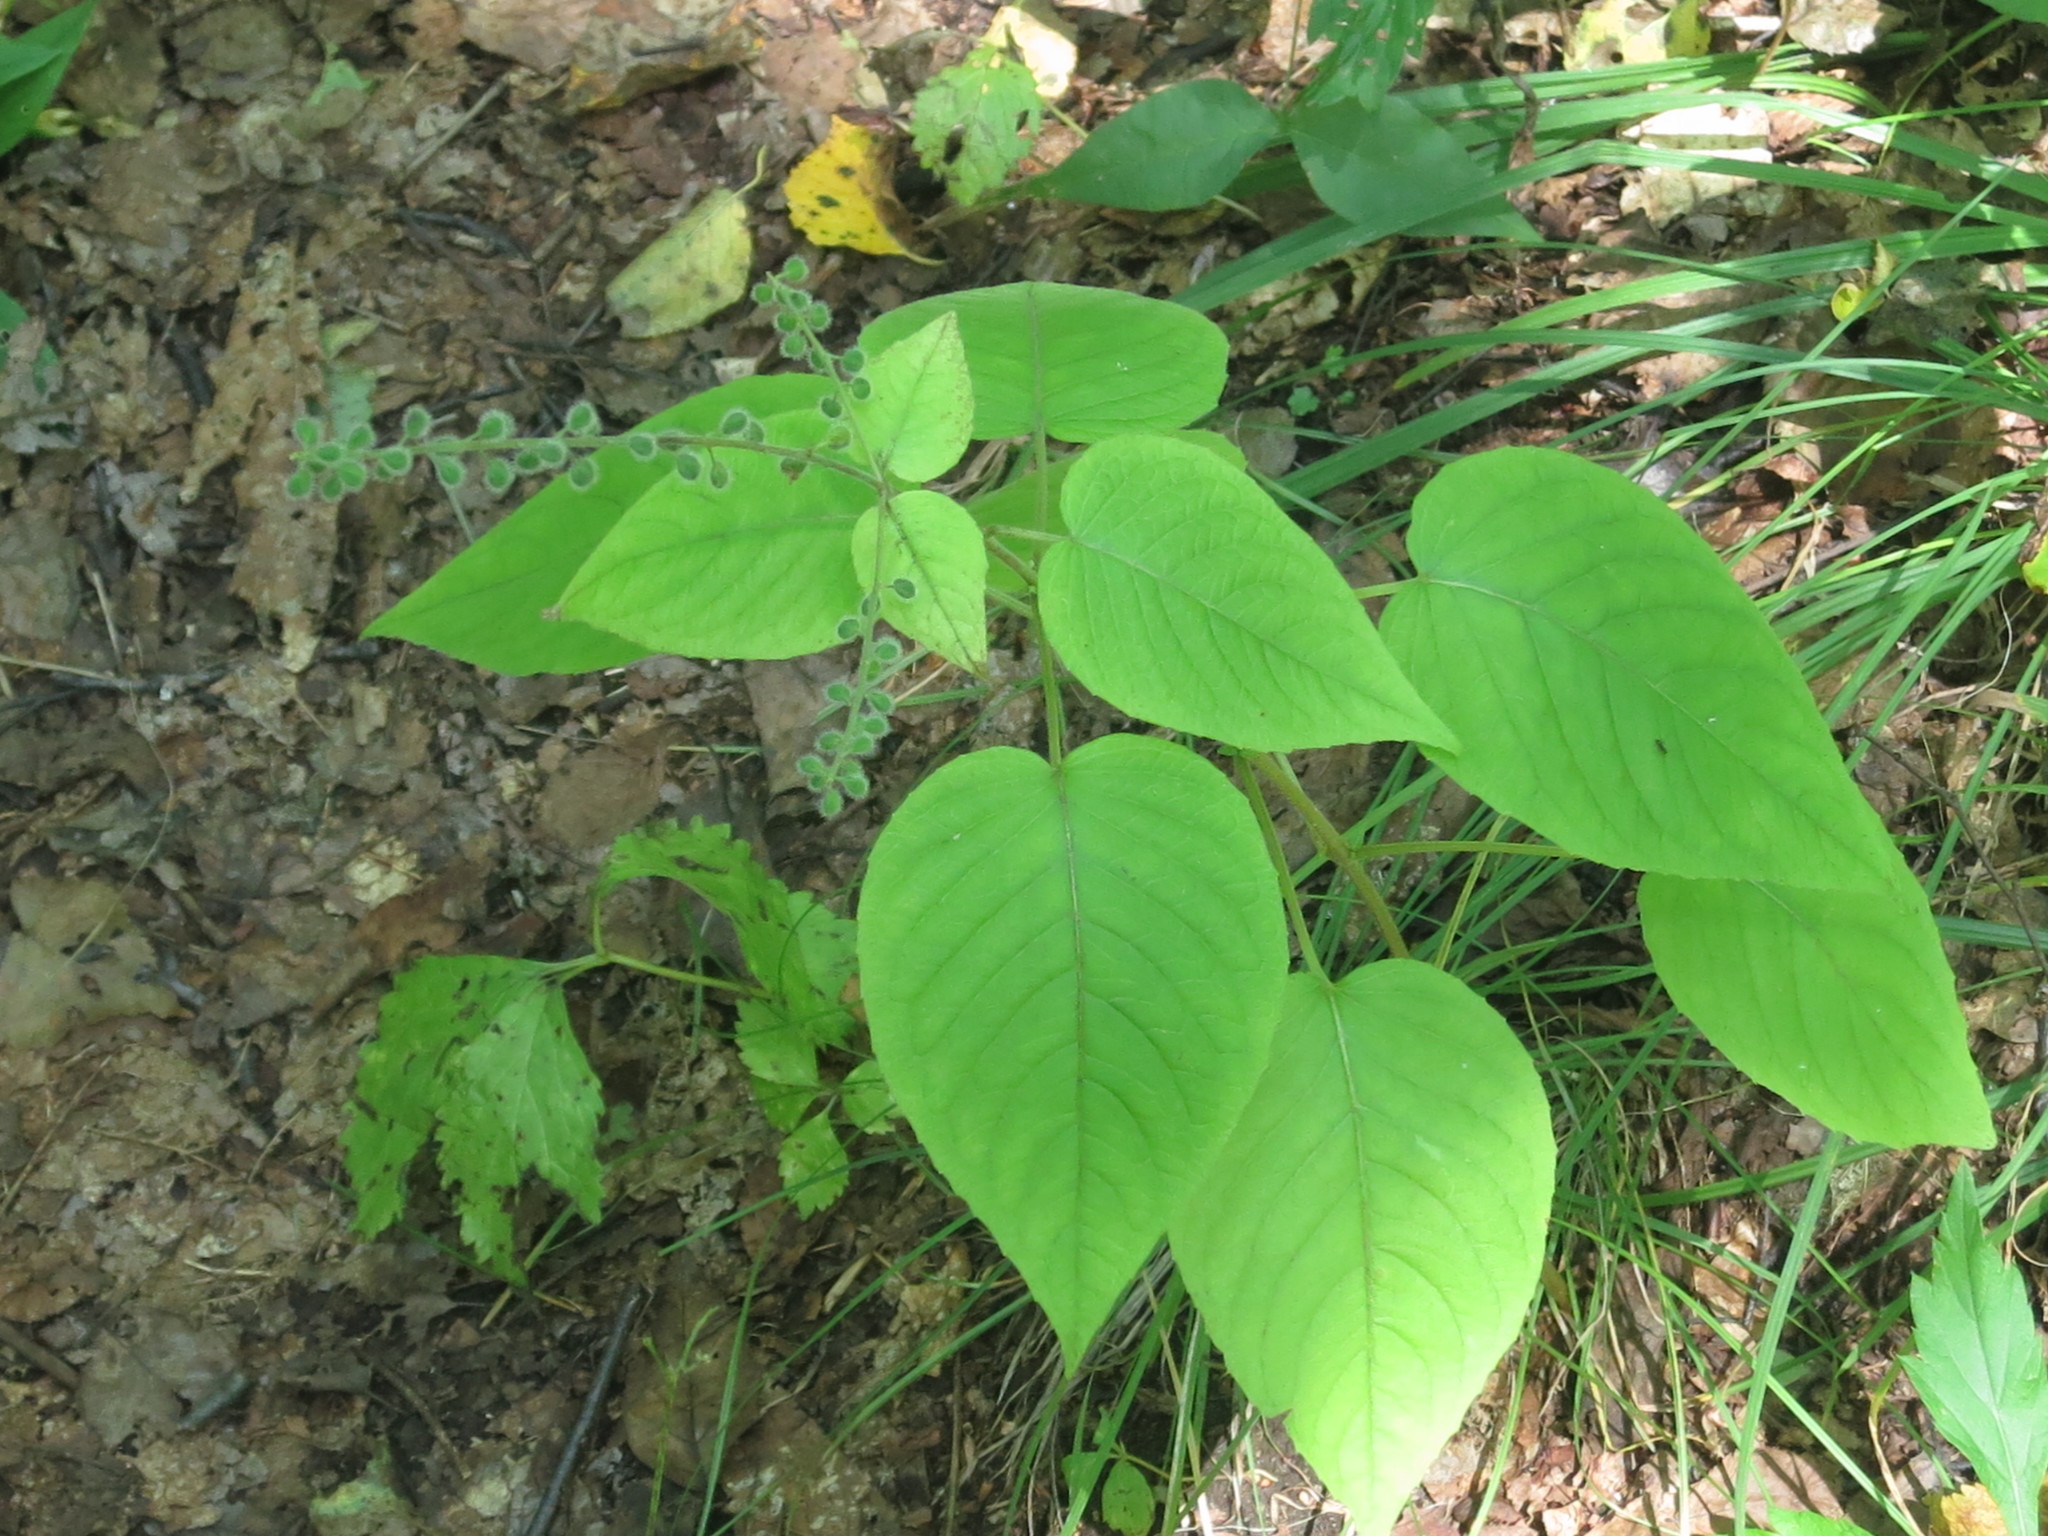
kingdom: Plantae
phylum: Tracheophyta
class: Magnoliopsida
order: Myrtales
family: Onagraceae
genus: Circaea
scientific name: Circaea cordata
